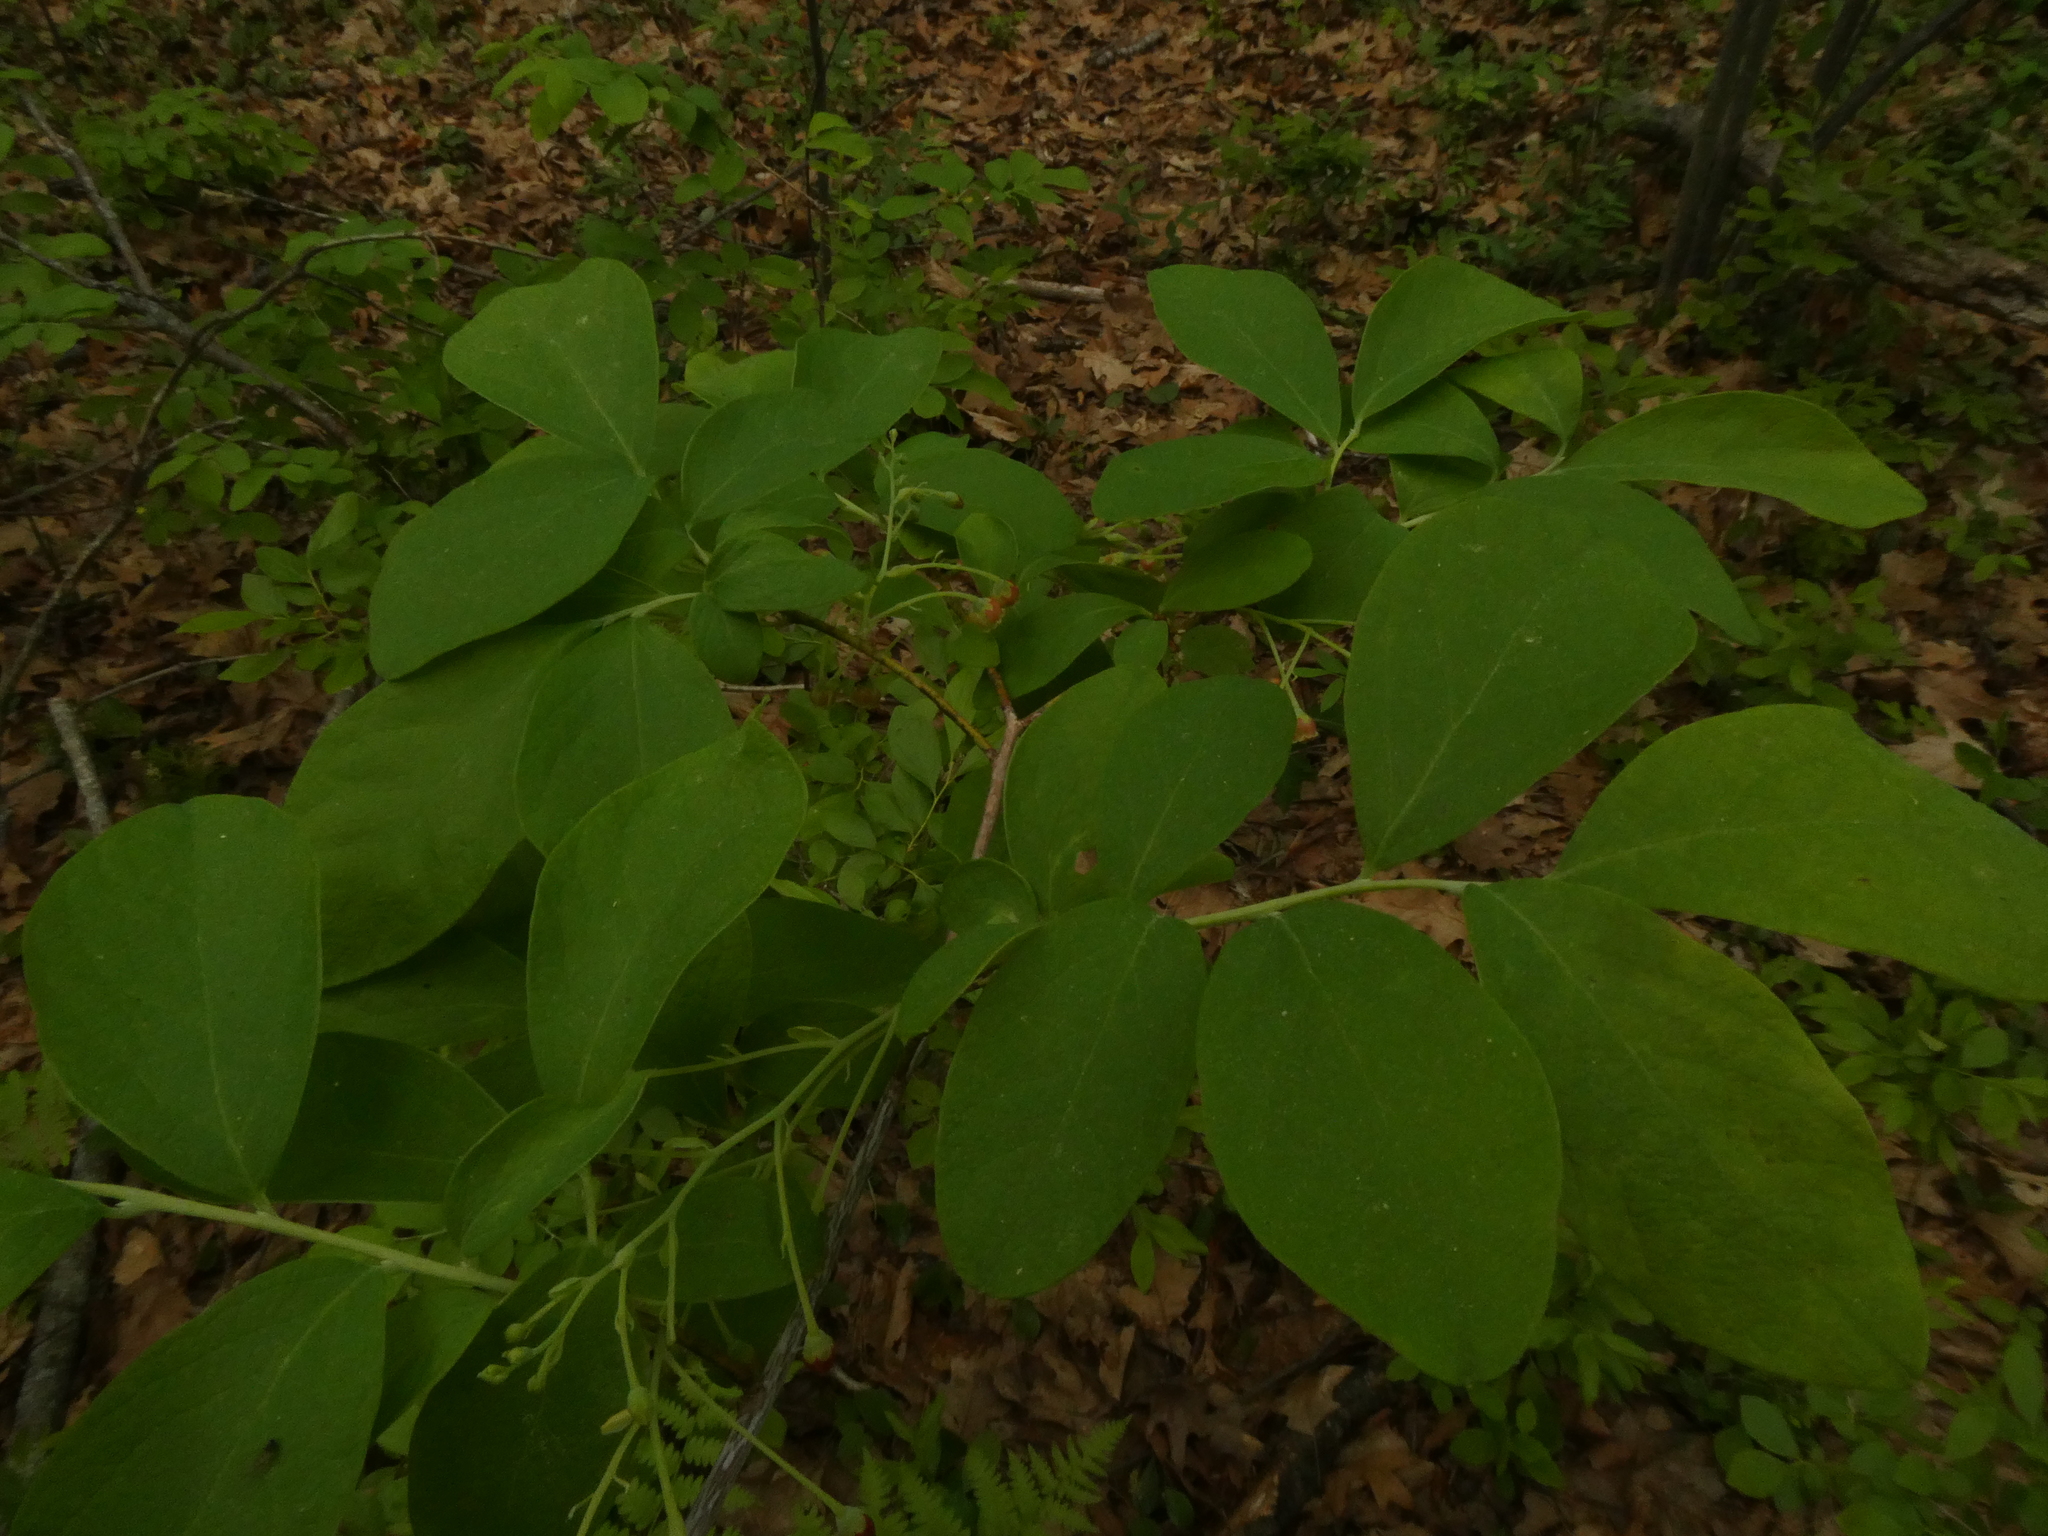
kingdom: Plantae
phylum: Tracheophyta
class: Magnoliopsida
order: Ericales
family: Ericaceae
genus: Gaylussacia
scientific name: Gaylussacia frondosa
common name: Dangleberry
